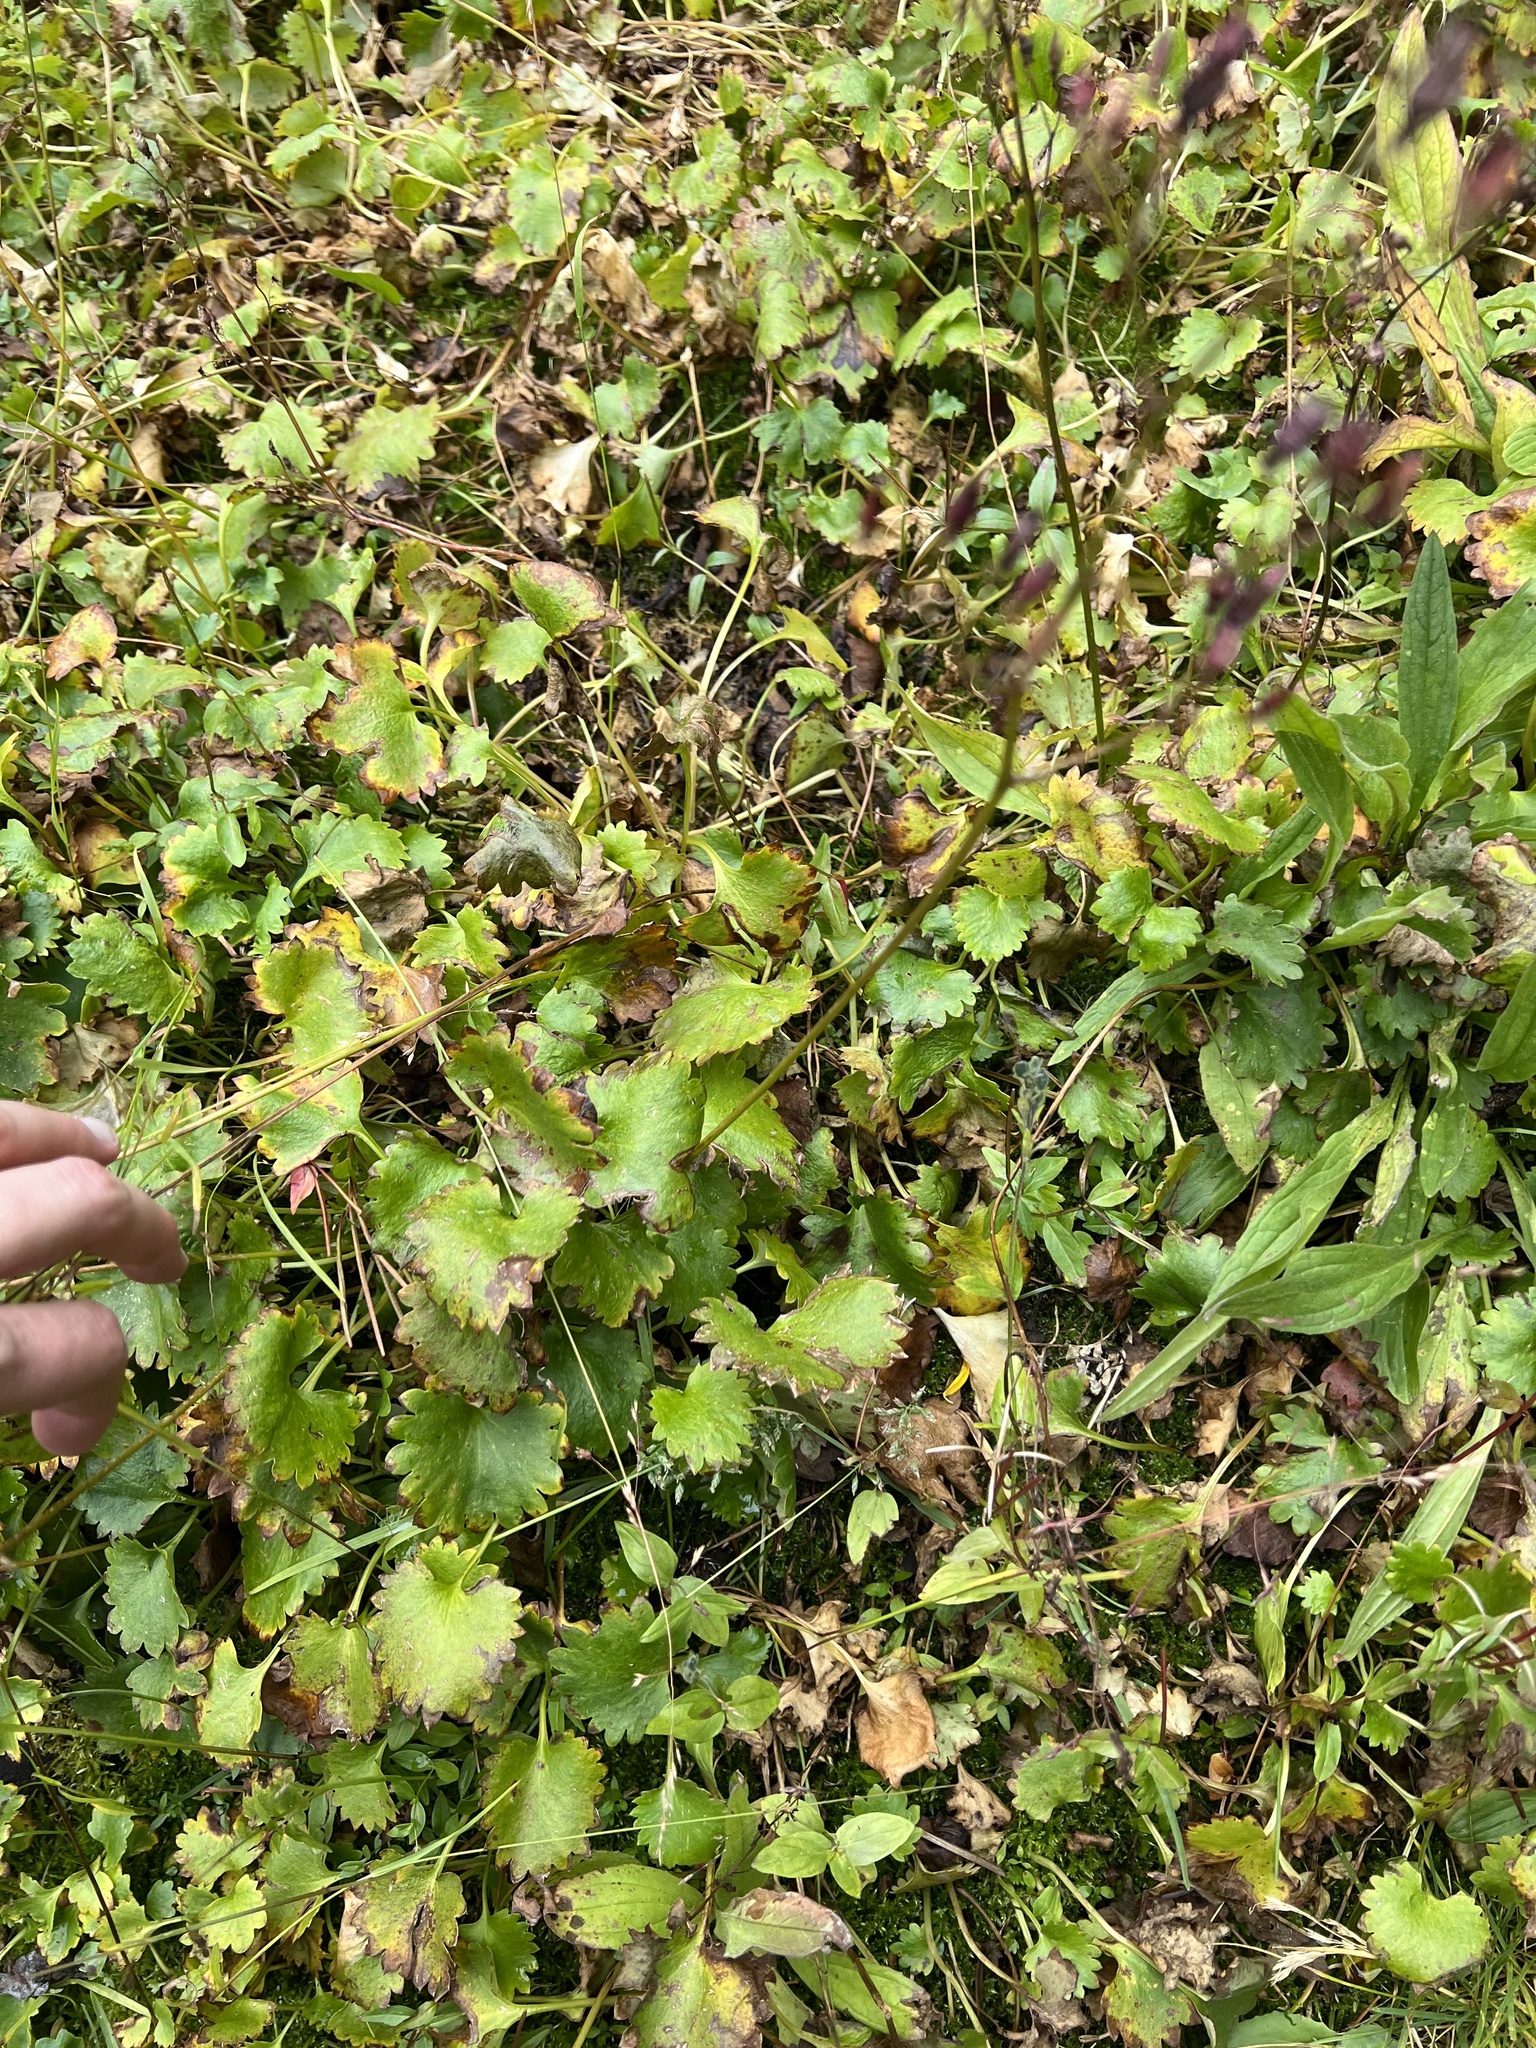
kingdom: Plantae
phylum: Tracheophyta
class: Magnoliopsida
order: Saxifragales
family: Saxifragaceae
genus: Micranthes
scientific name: Micranthes odontoloma
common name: Brook saxifrage
